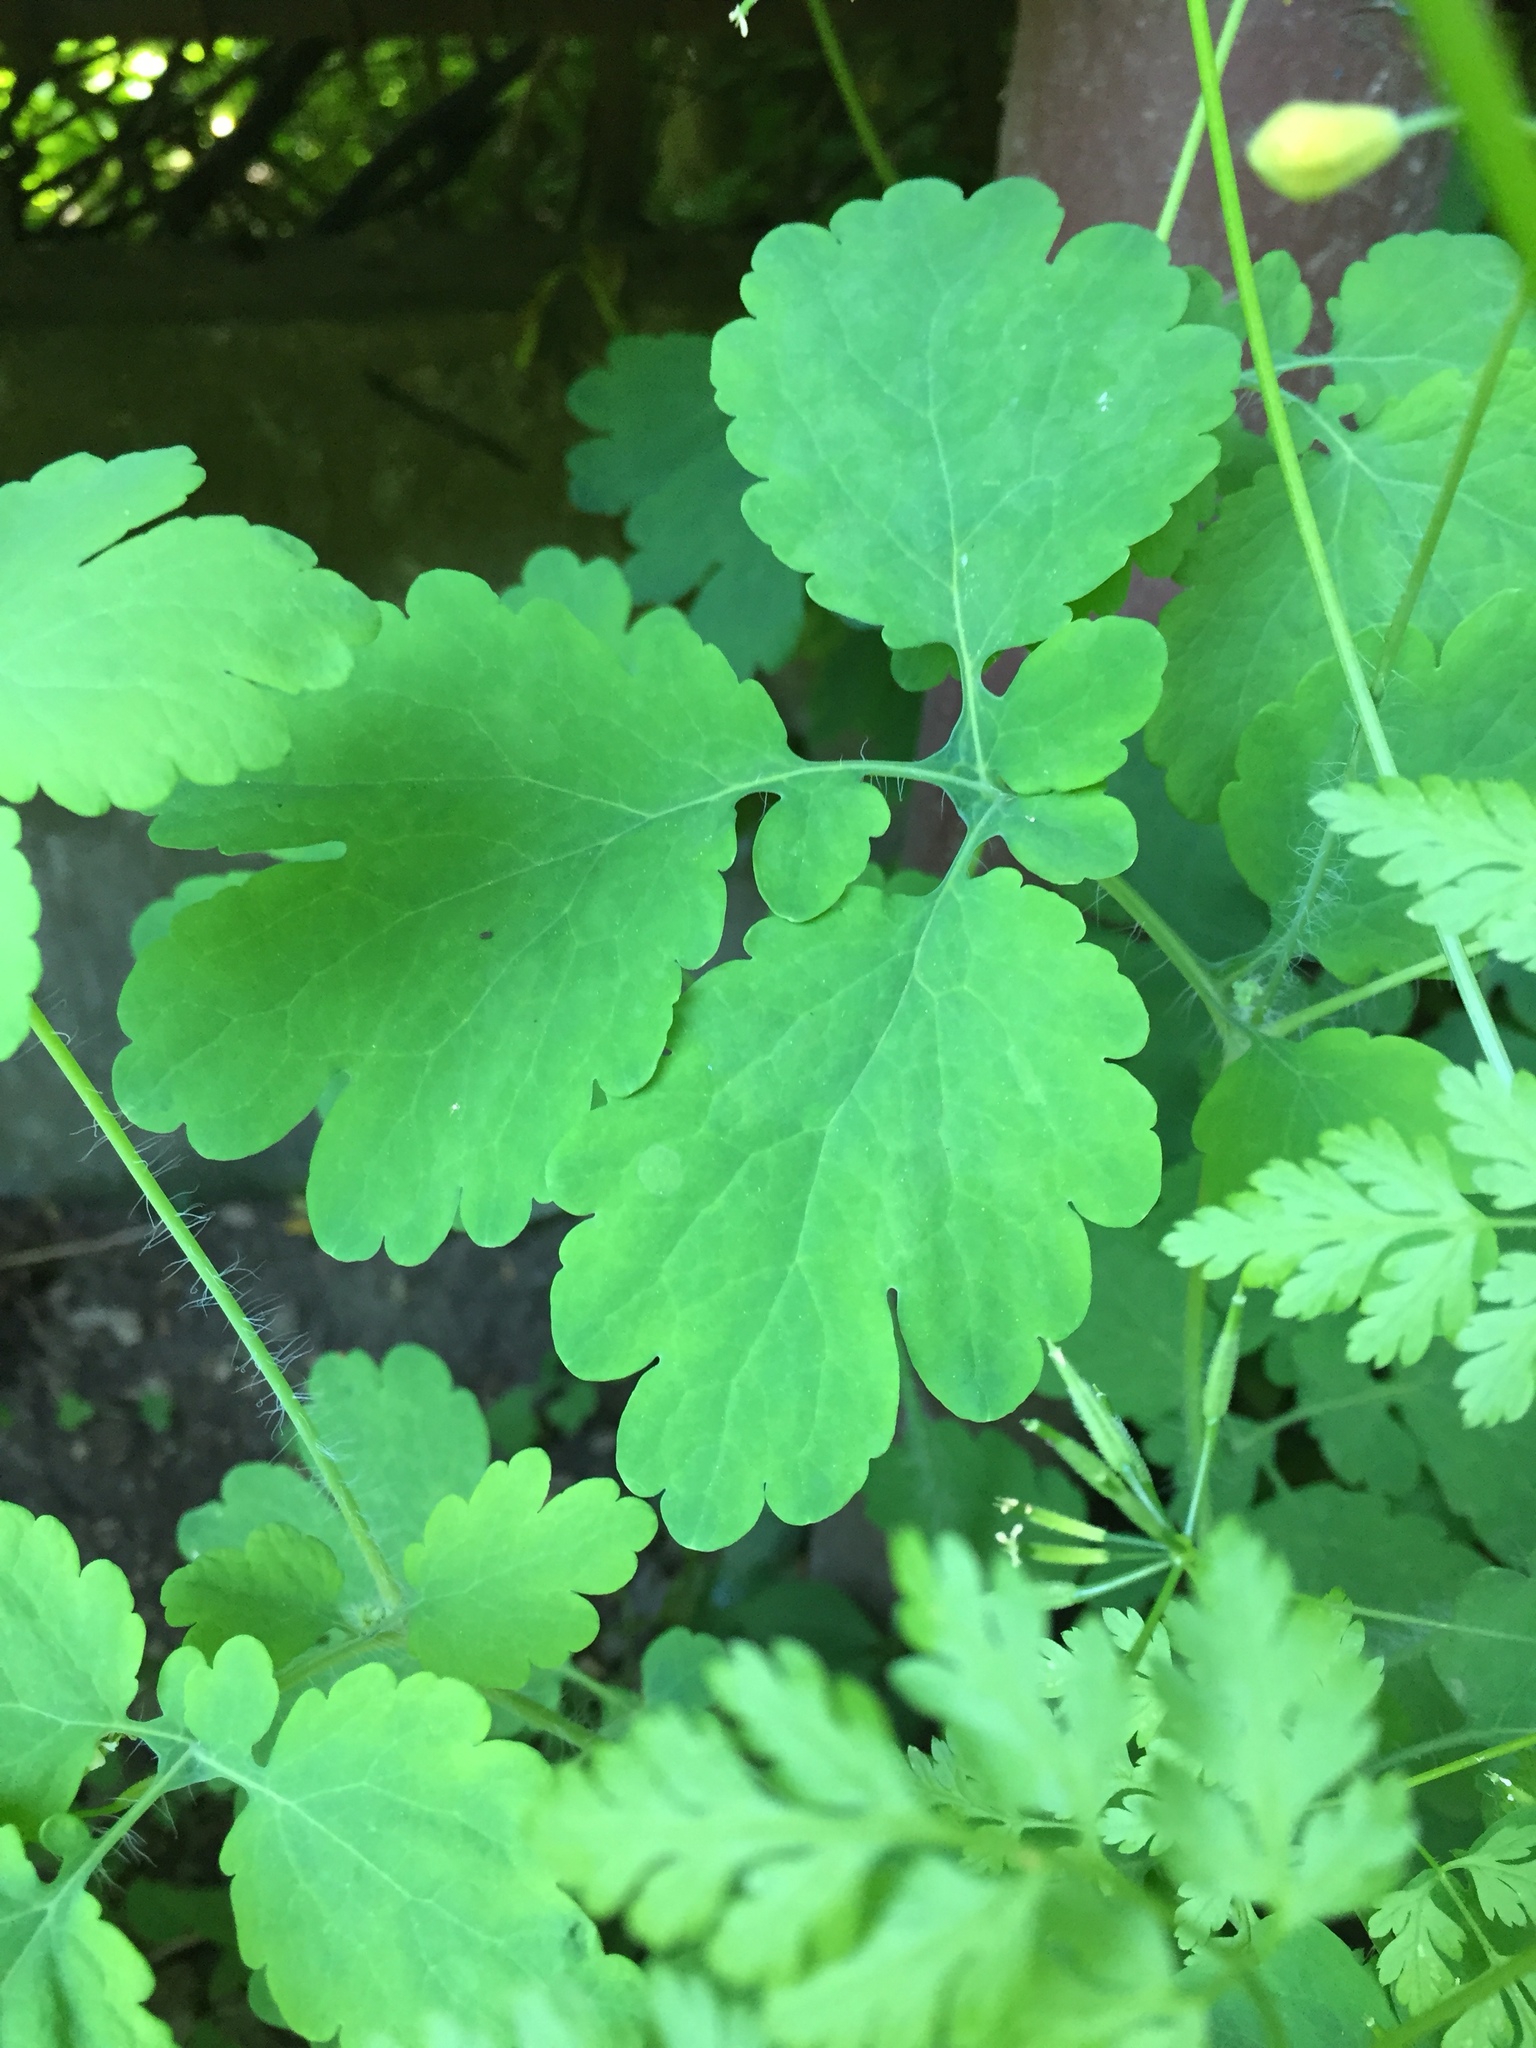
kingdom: Plantae
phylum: Tracheophyta
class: Magnoliopsida
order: Ranunculales
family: Papaveraceae
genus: Chelidonium
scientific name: Chelidonium majus
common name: Greater celandine
